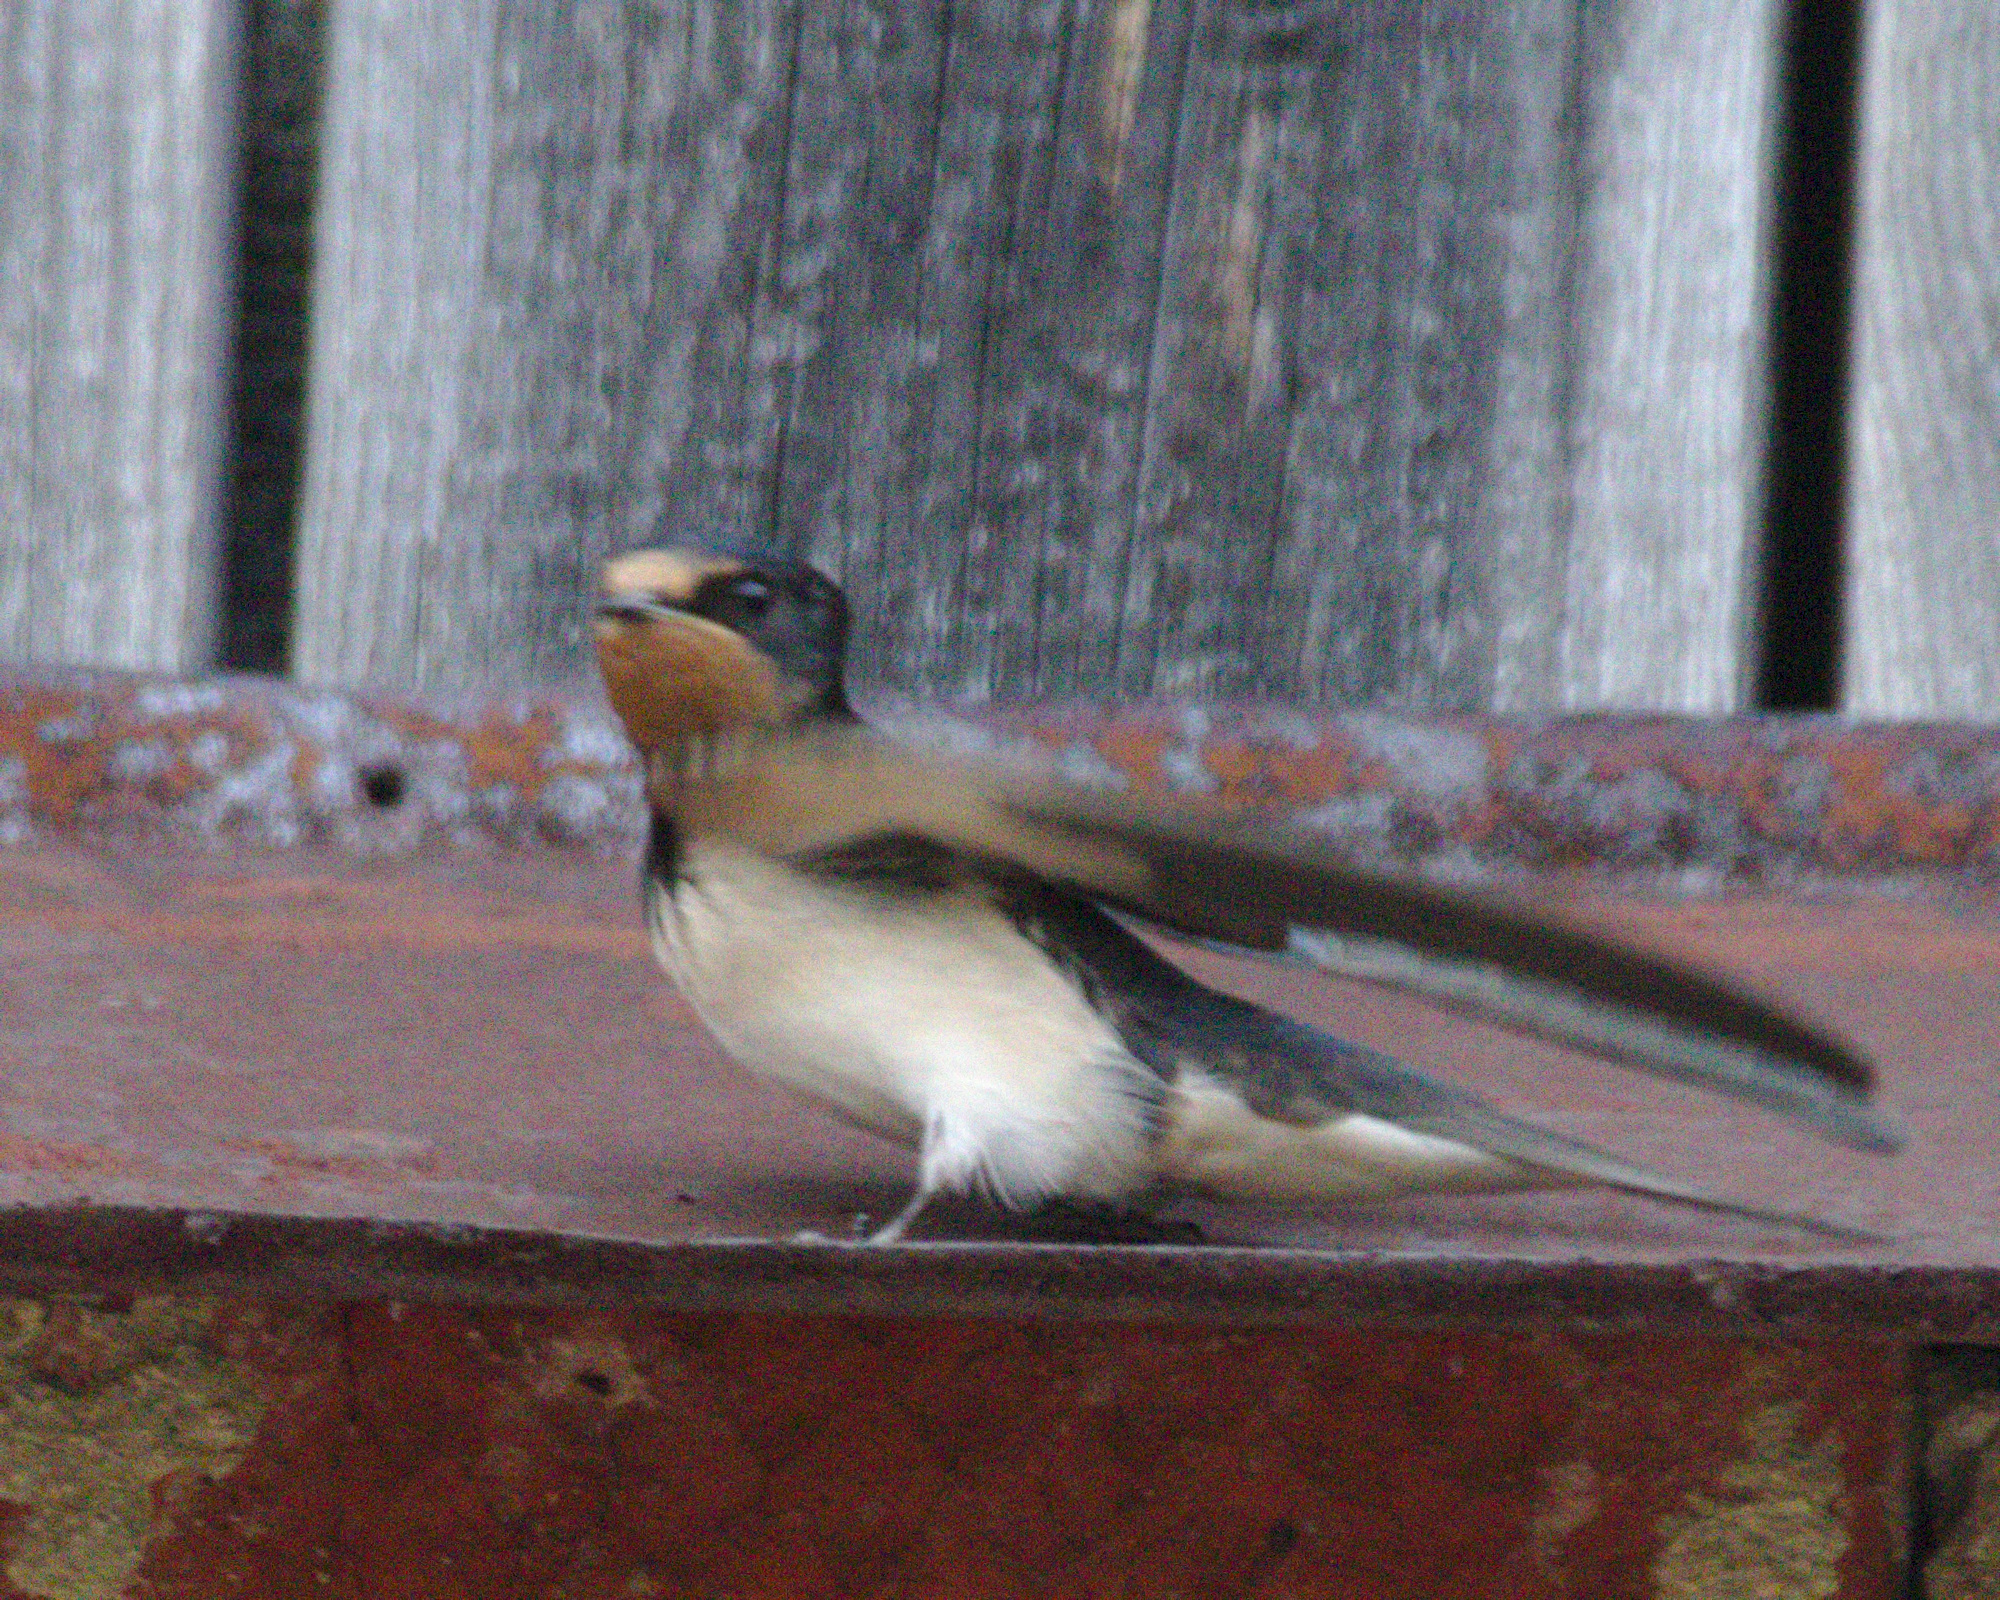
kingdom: Animalia
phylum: Chordata
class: Aves
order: Passeriformes
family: Hirundinidae
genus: Hirundo
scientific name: Hirundo rustica
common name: Barn swallow
